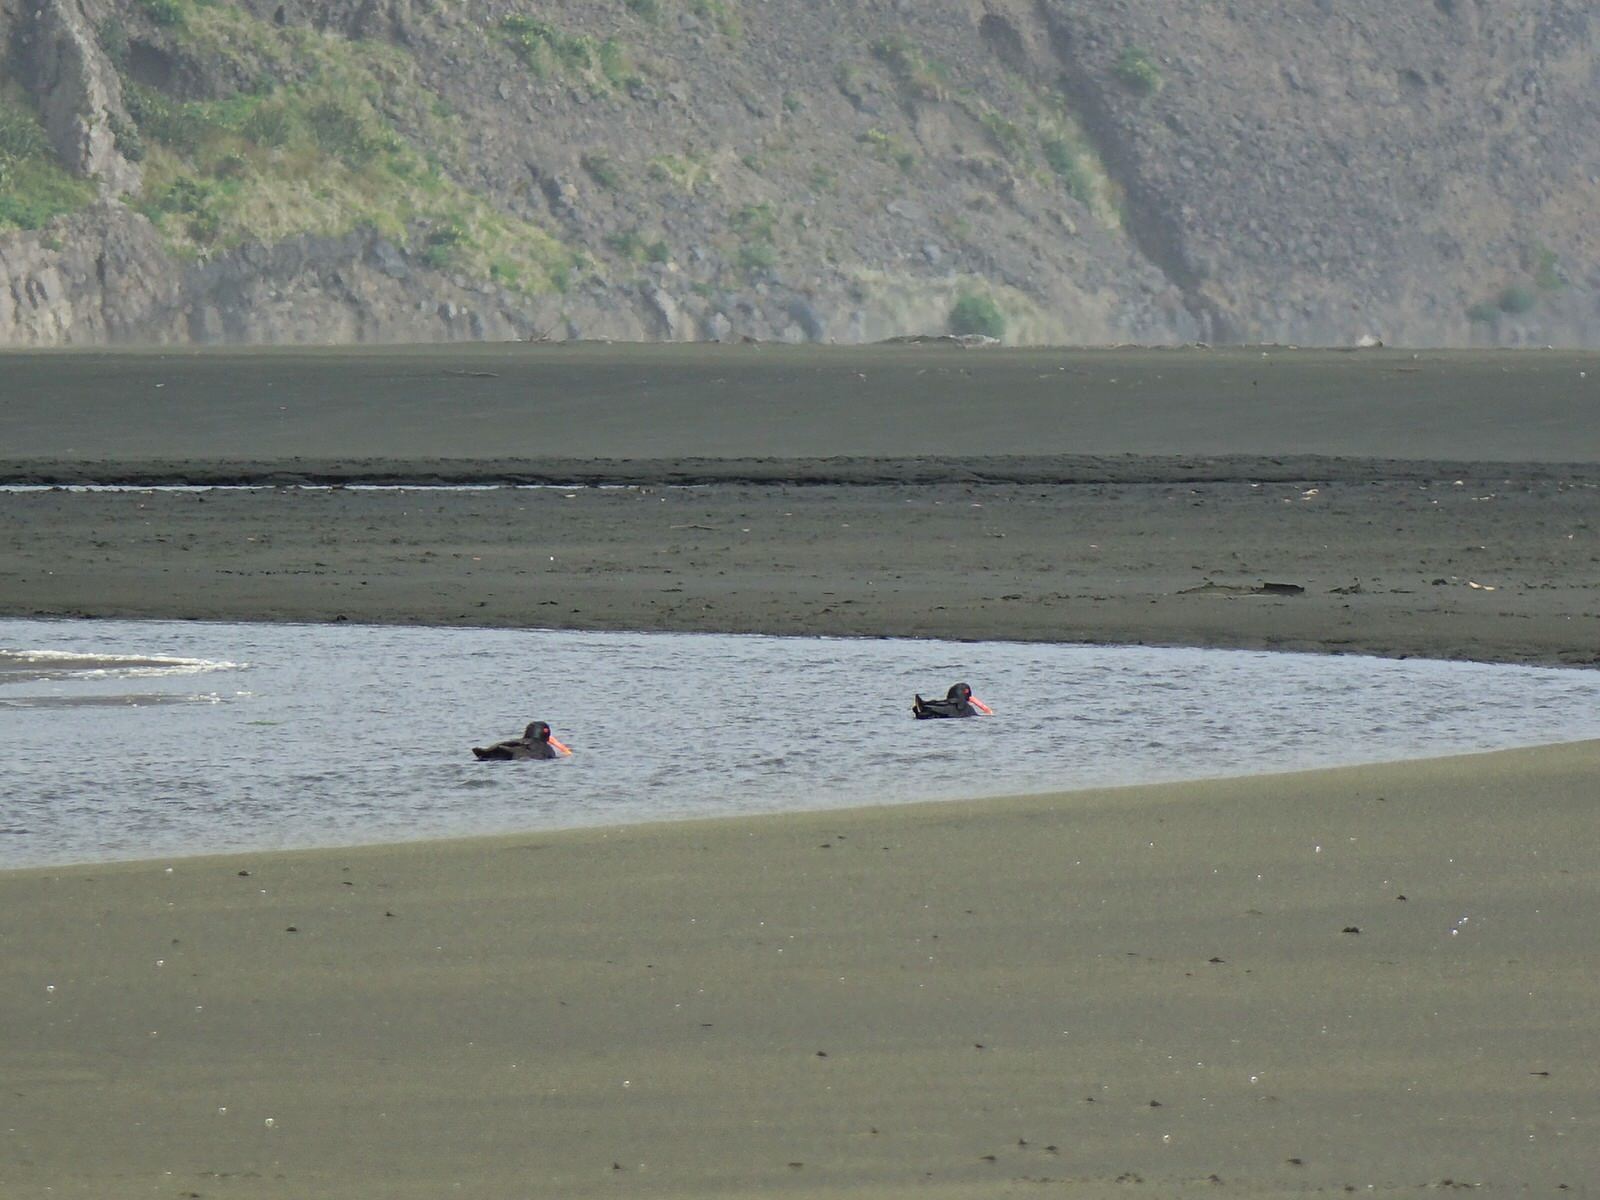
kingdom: Animalia
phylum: Chordata
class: Aves
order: Charadriiformes
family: Haematopodidae
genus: Haematopus
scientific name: Haematopus unicolor
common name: Variable oystercatcher
